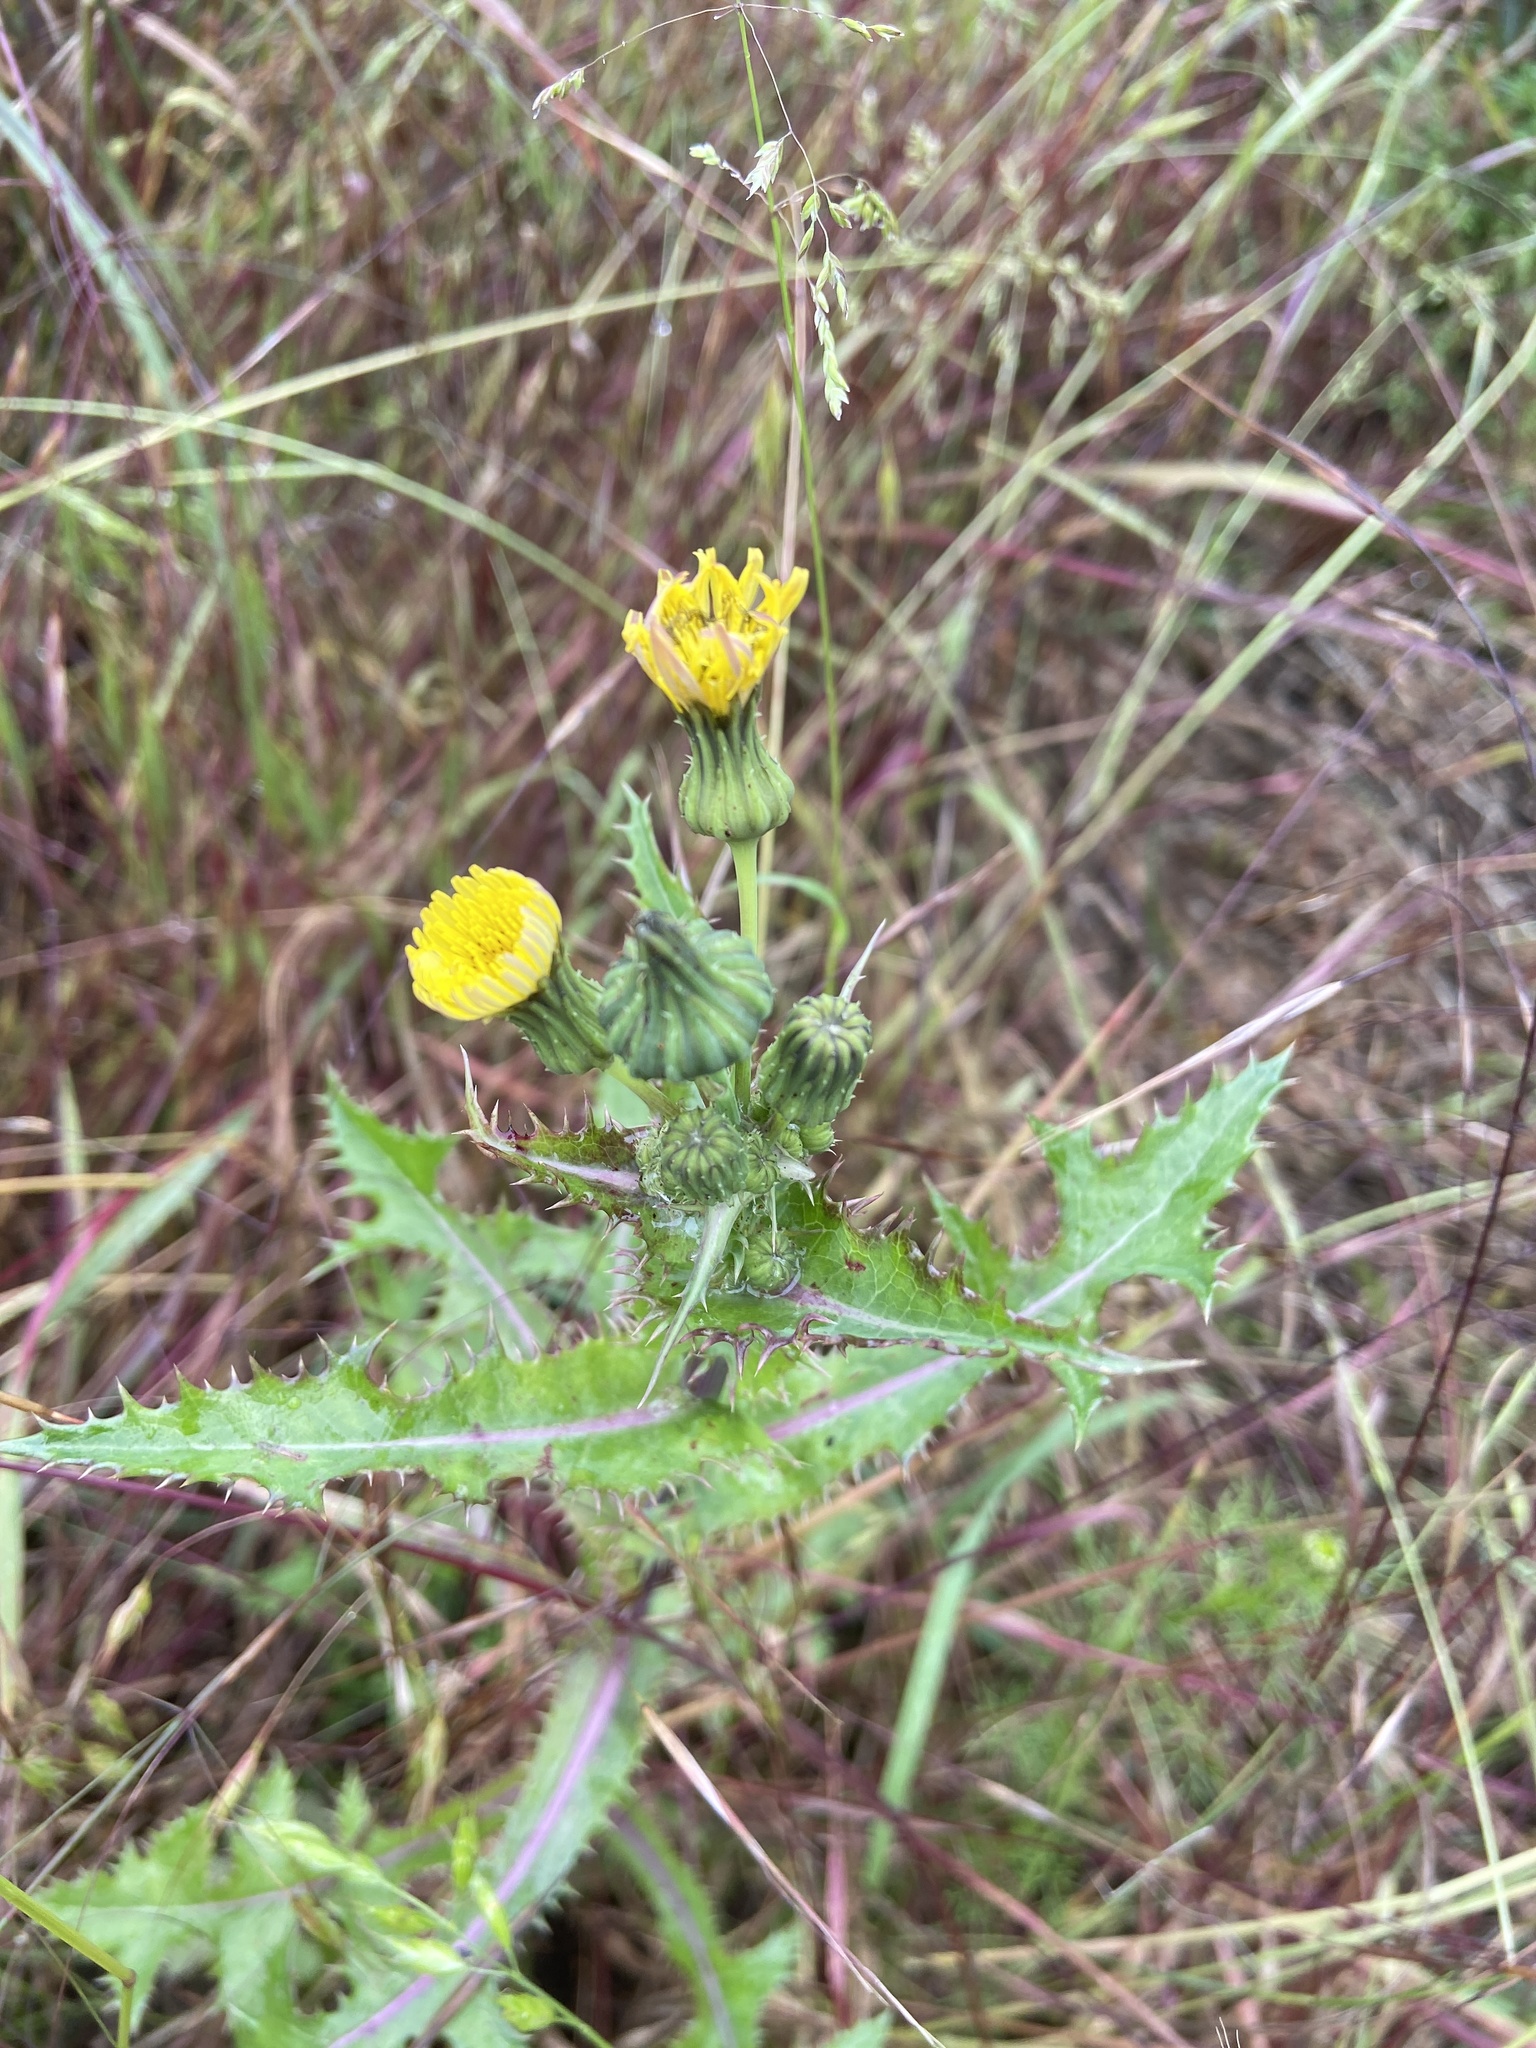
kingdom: Plantae
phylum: Tracheophyta
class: Magnoliopsida
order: Asterales
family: Asteraceae
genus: Sonchus
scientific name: Sonchus asper
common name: Prickly sow-thistle
